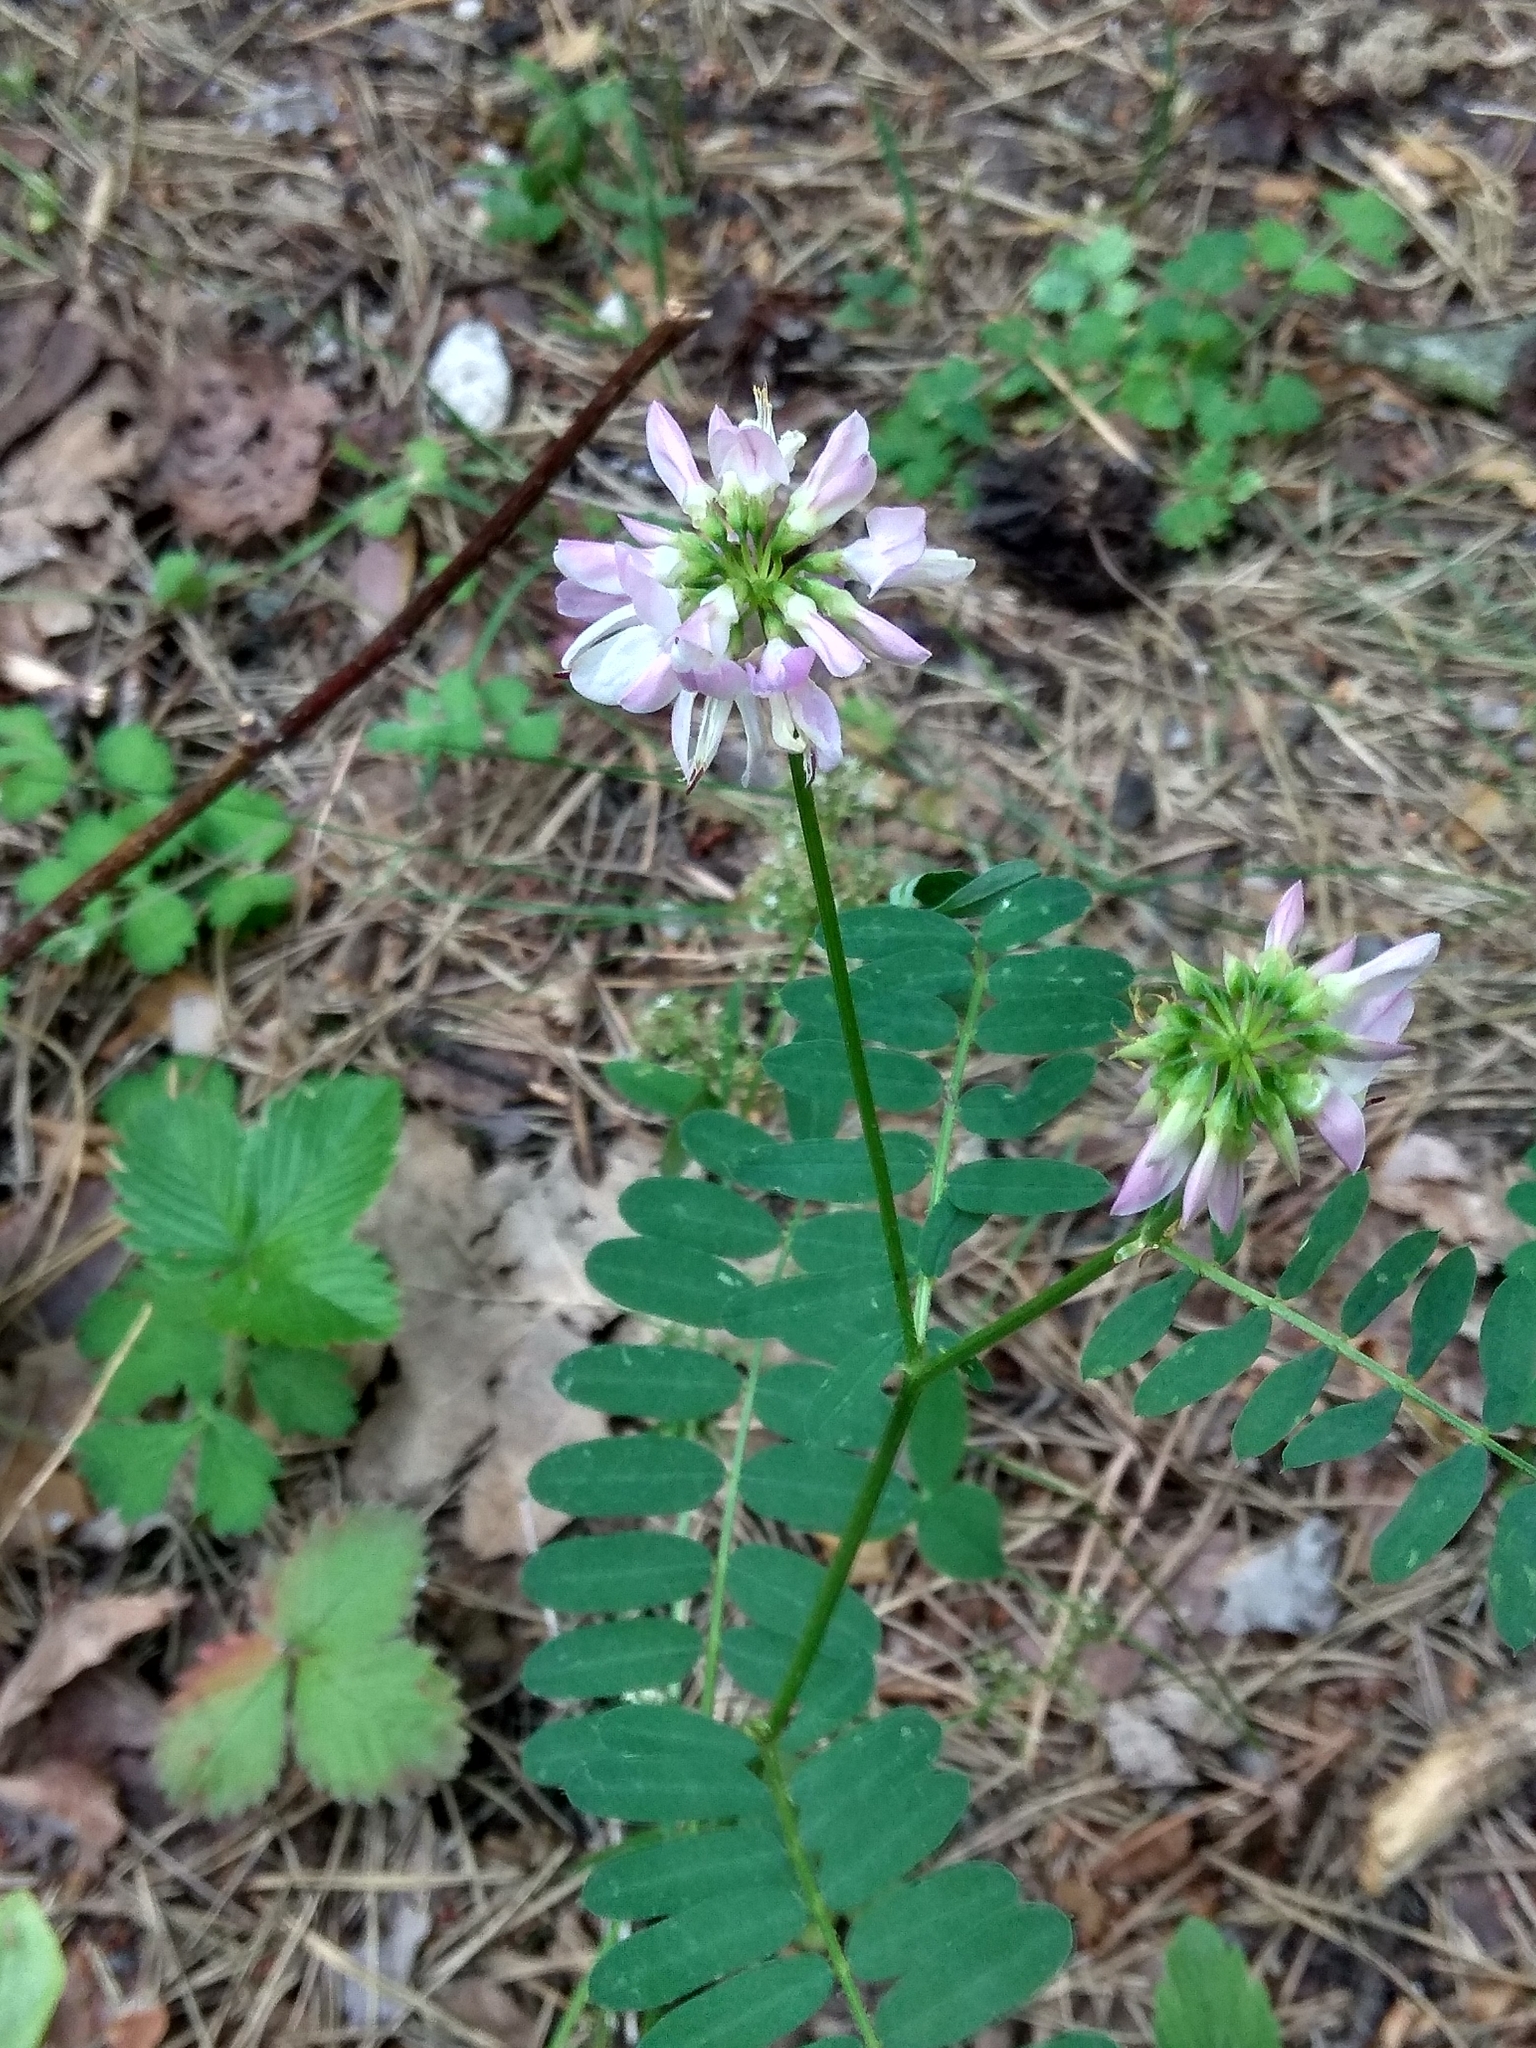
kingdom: Plantae
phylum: Tracheophyta
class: Magnoliopsida
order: Fabales
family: Fabaceae
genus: Coronilla
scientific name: Coronilla varia
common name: Crownvetch
